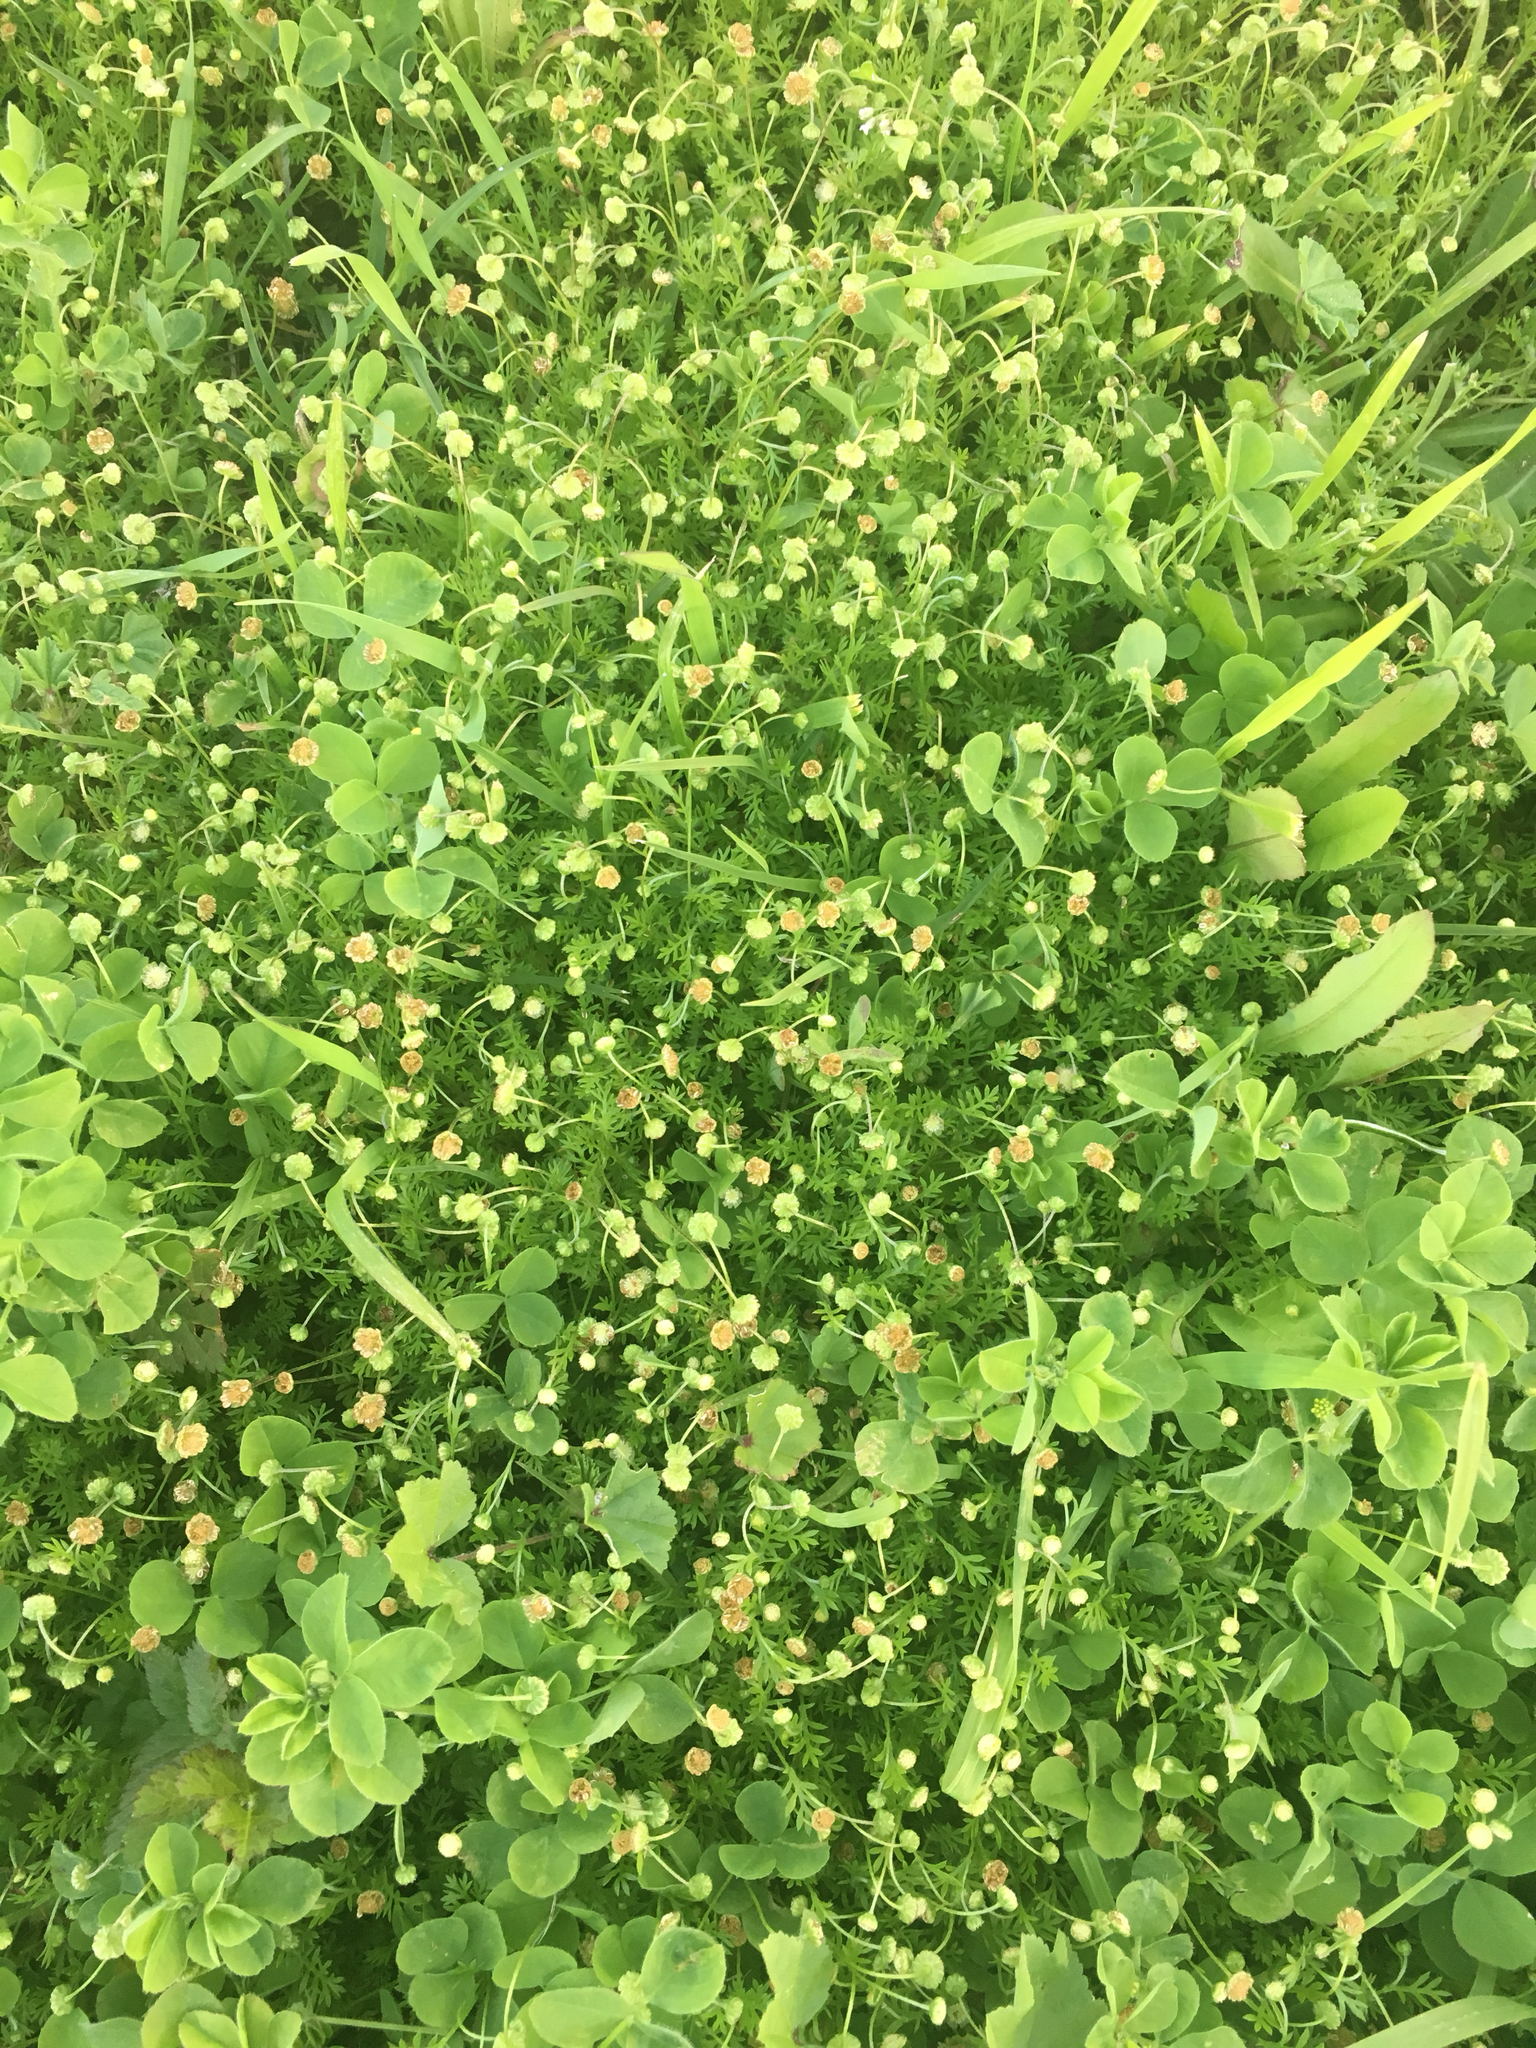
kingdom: Plantae
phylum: Tracheophyta
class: Magnoliopsida
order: Asterales
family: Asteraceae
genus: Cotula
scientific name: Cotula australis
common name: Australian waterbuttons
